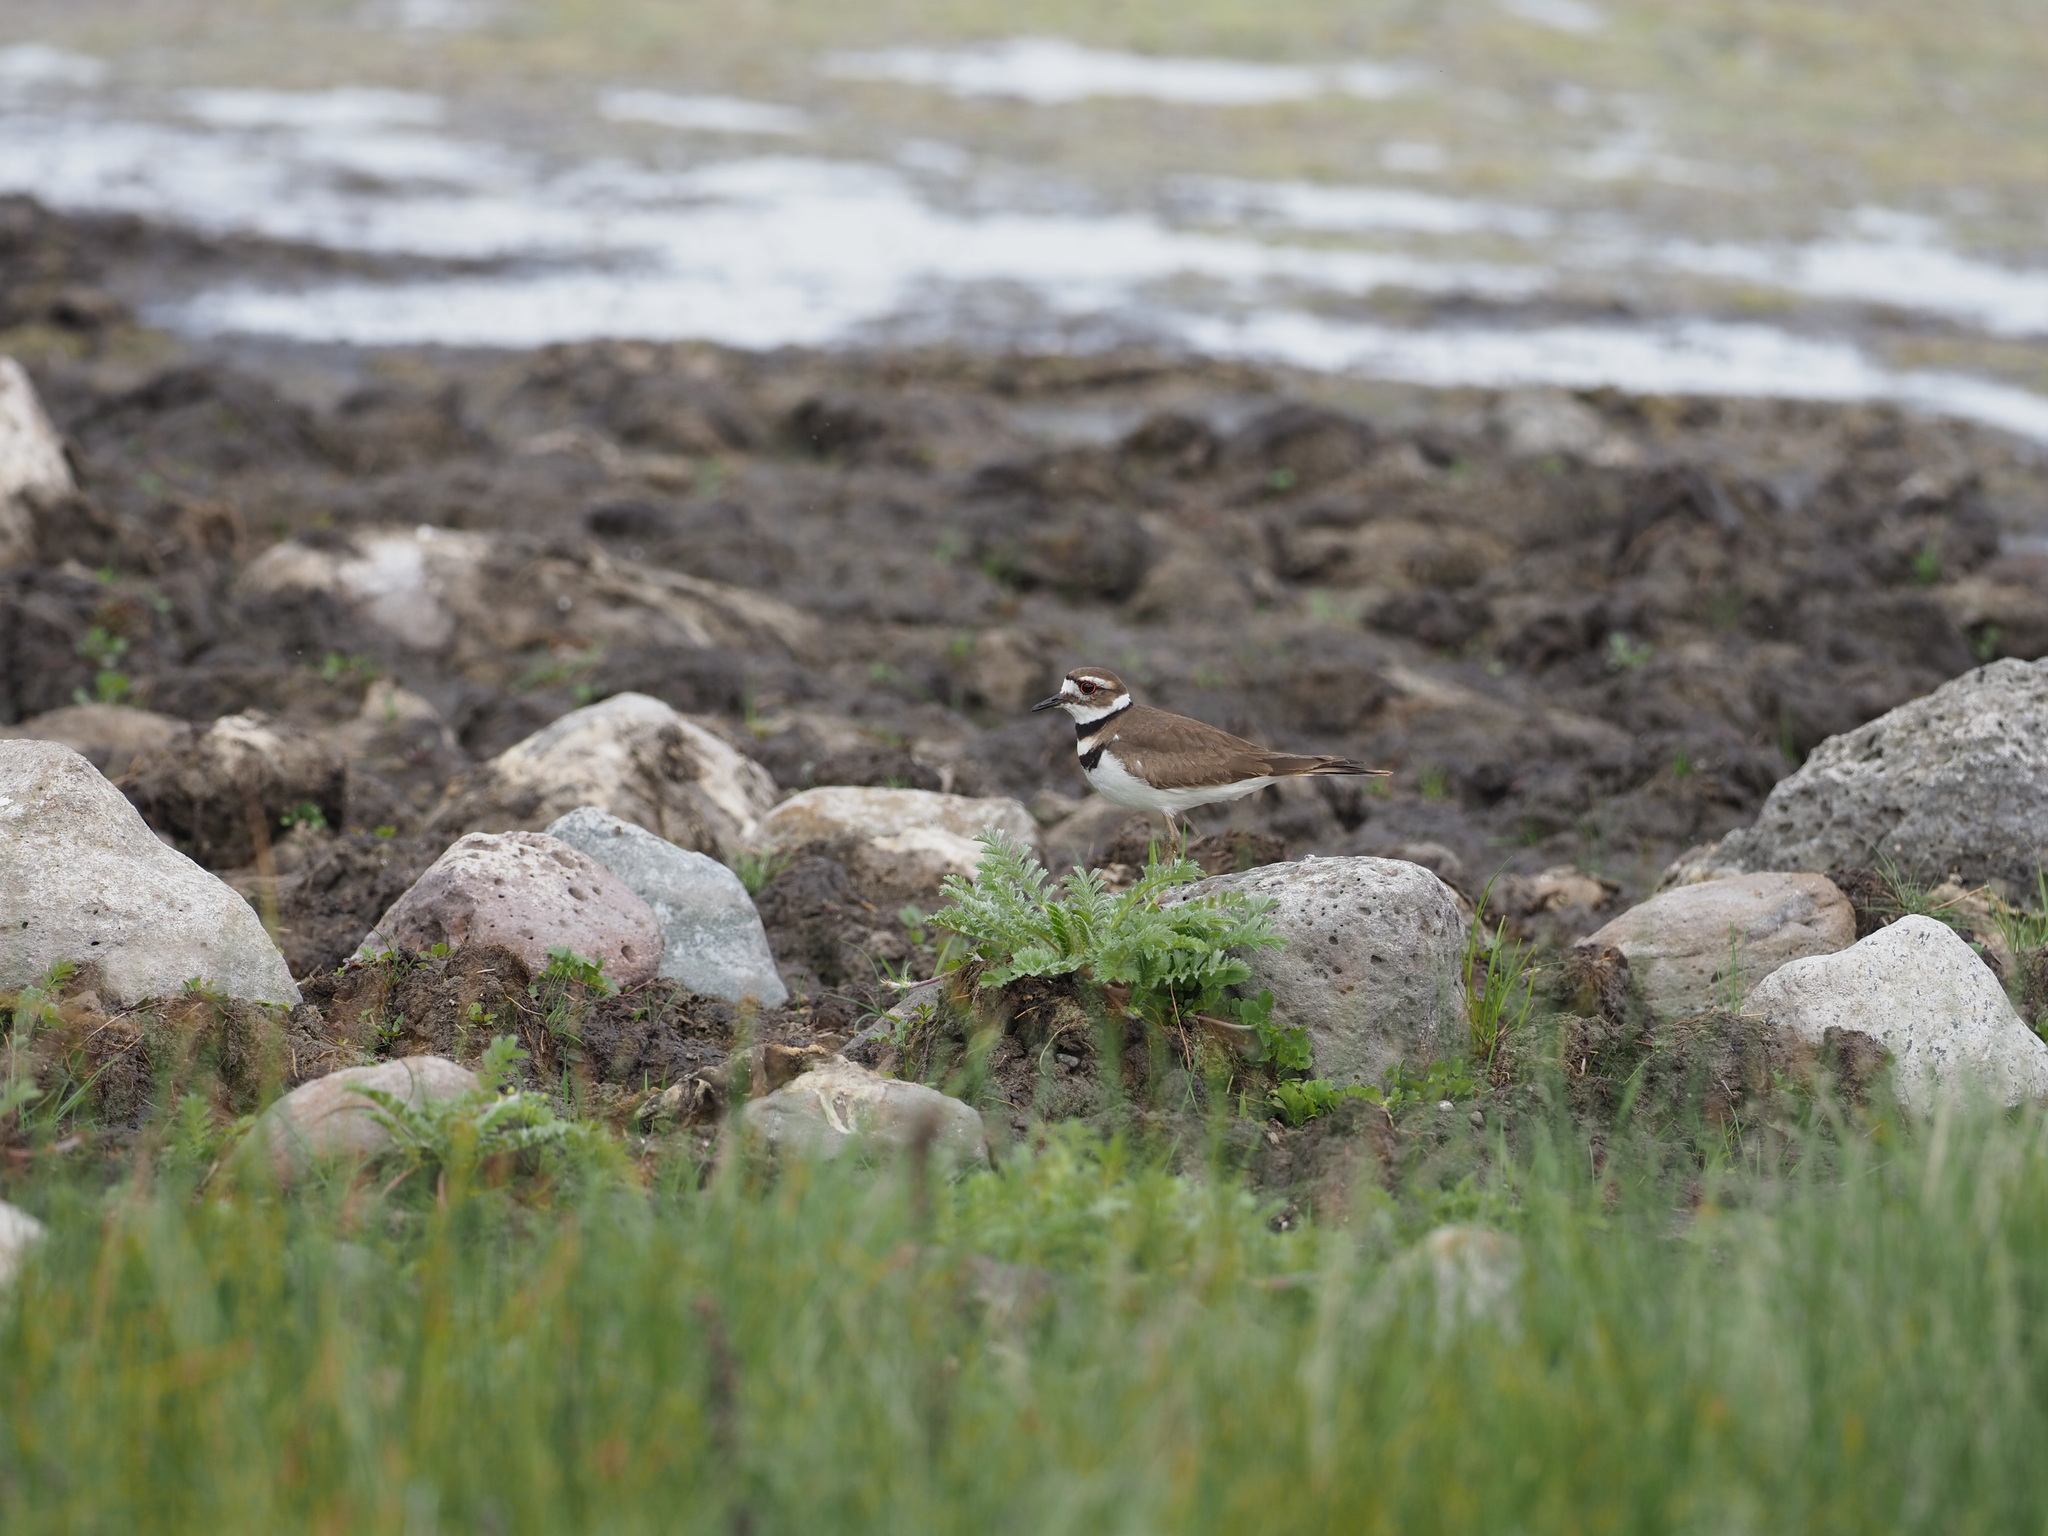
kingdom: Animalia
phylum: Chordata
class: Aves
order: Charadriiformes
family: Charadriidae
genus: Charadrius
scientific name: Charadrius vociferus
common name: Killdeer
